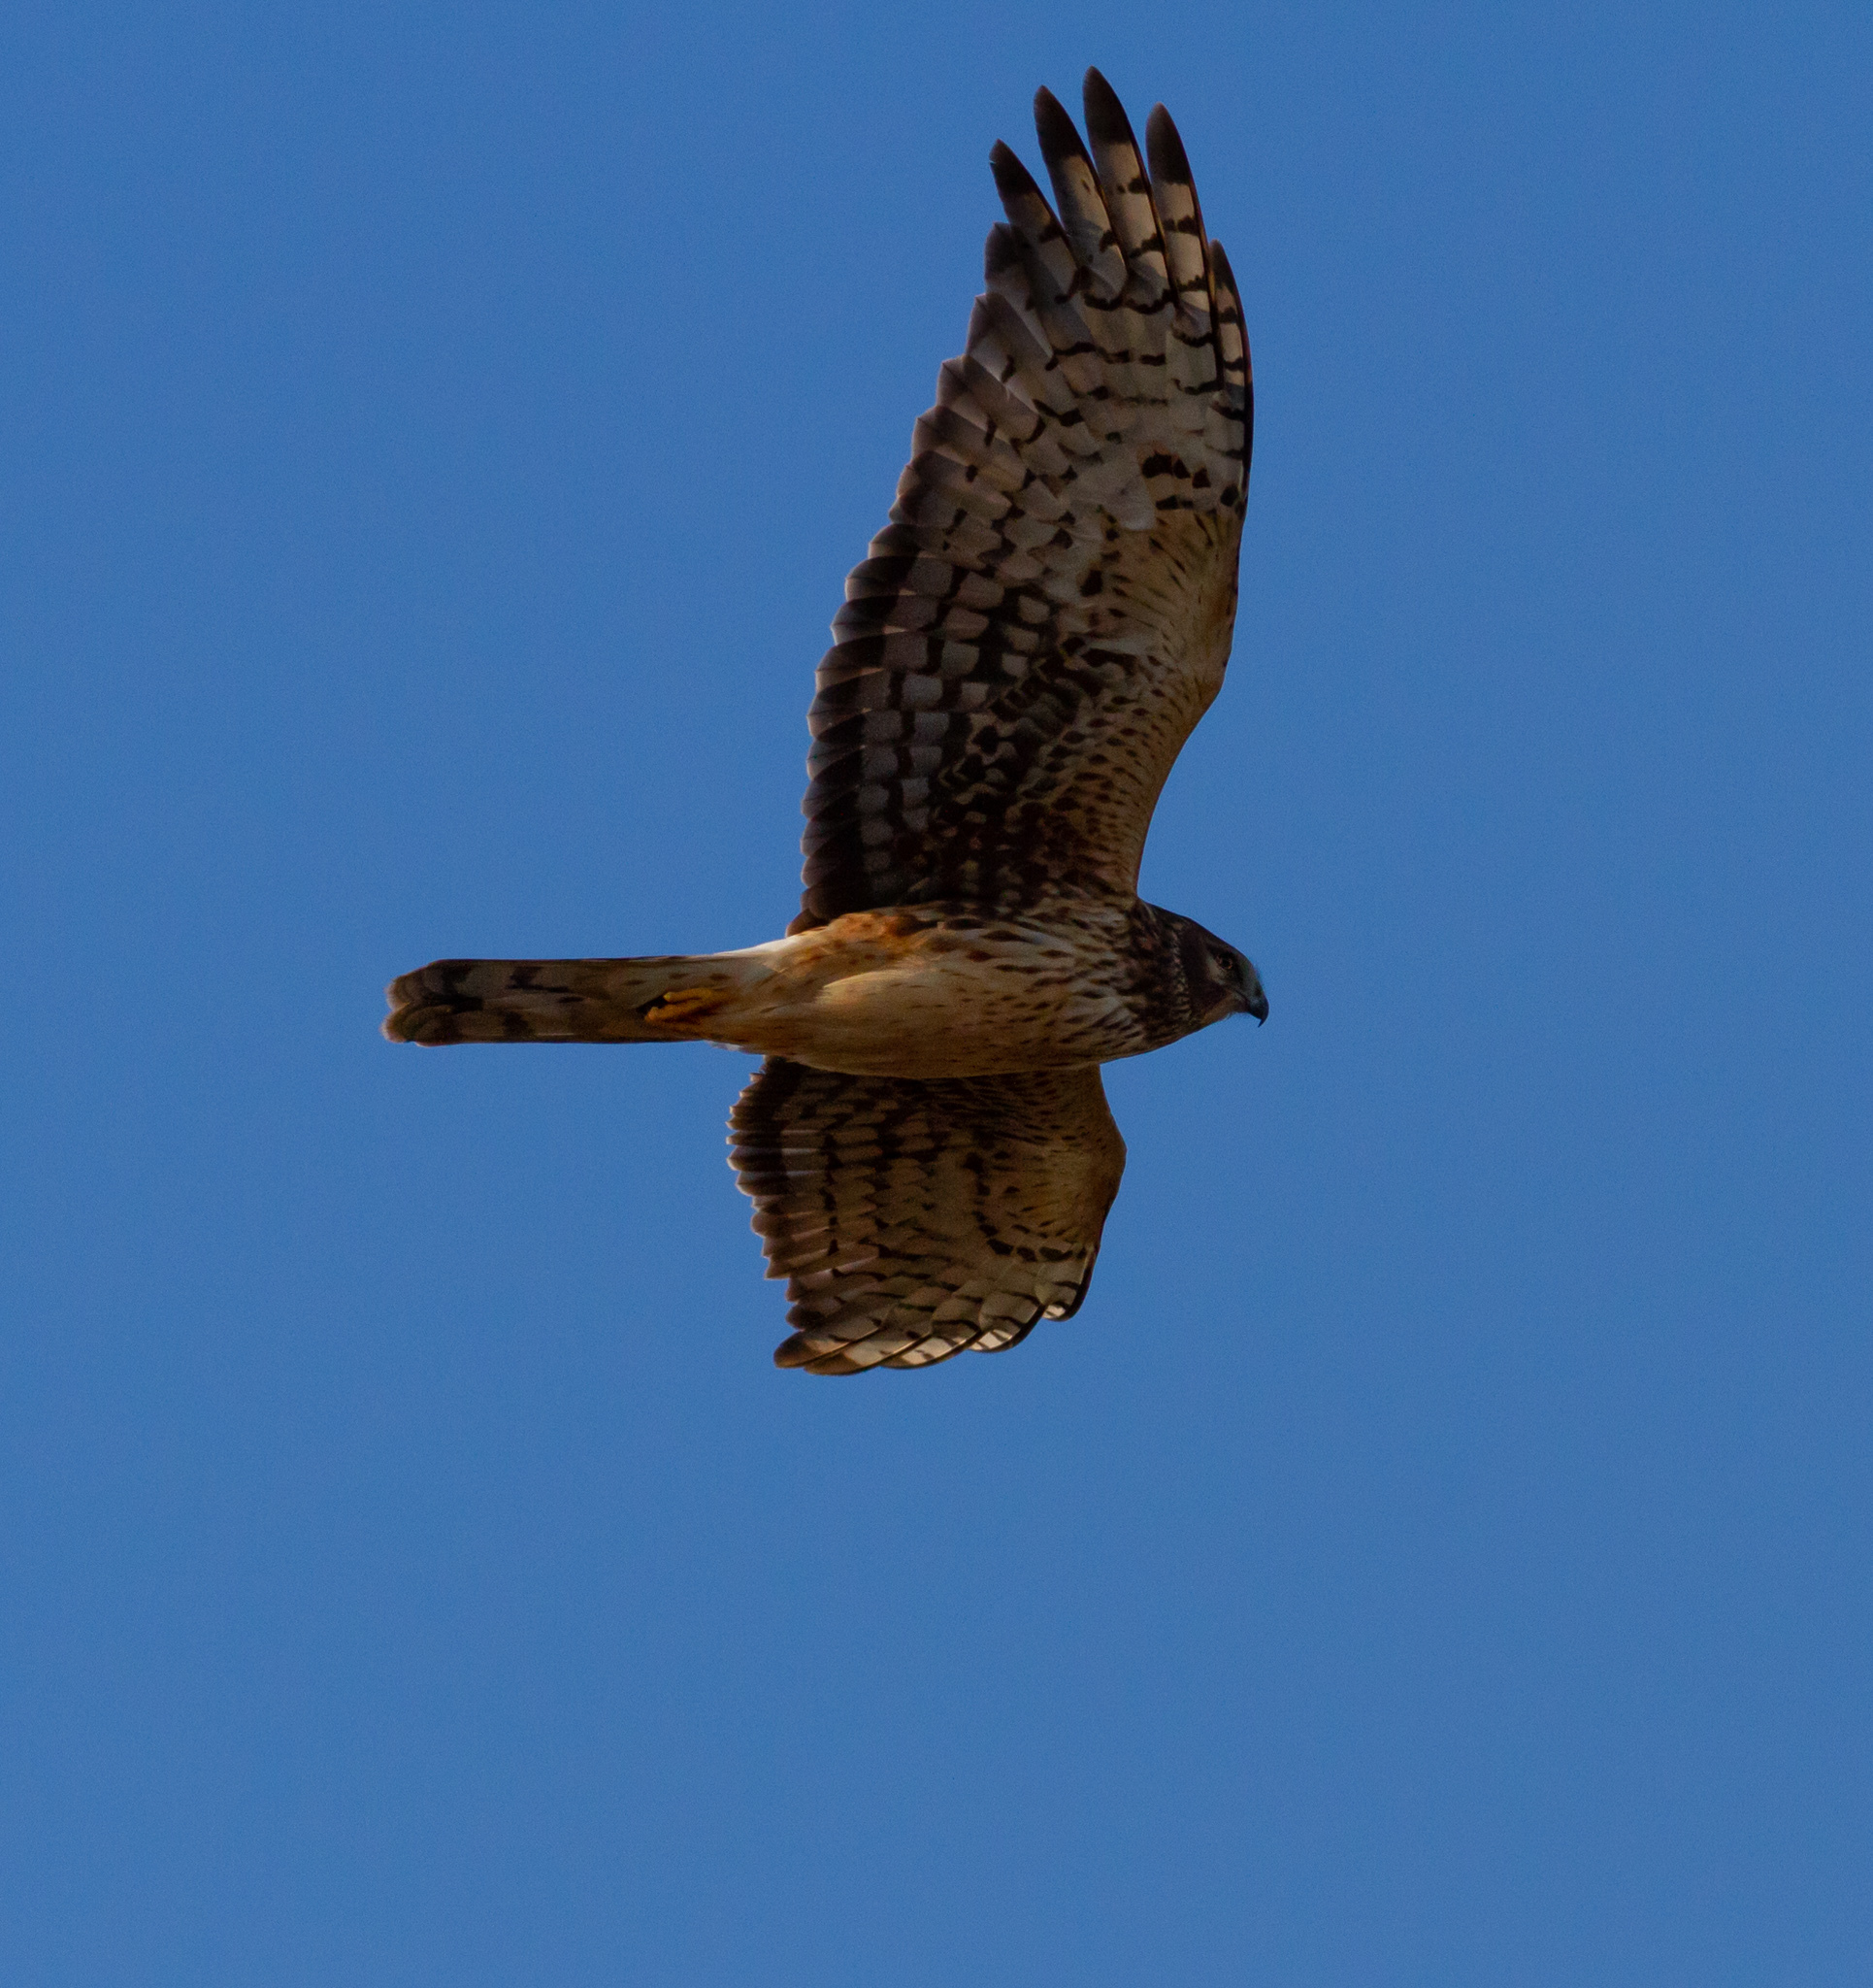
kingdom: Animalia
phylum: Chordata
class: Aves
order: Accipitriformes
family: Accipitridae
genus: Circus
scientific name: Circus cyaneus
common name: Hen harrier
